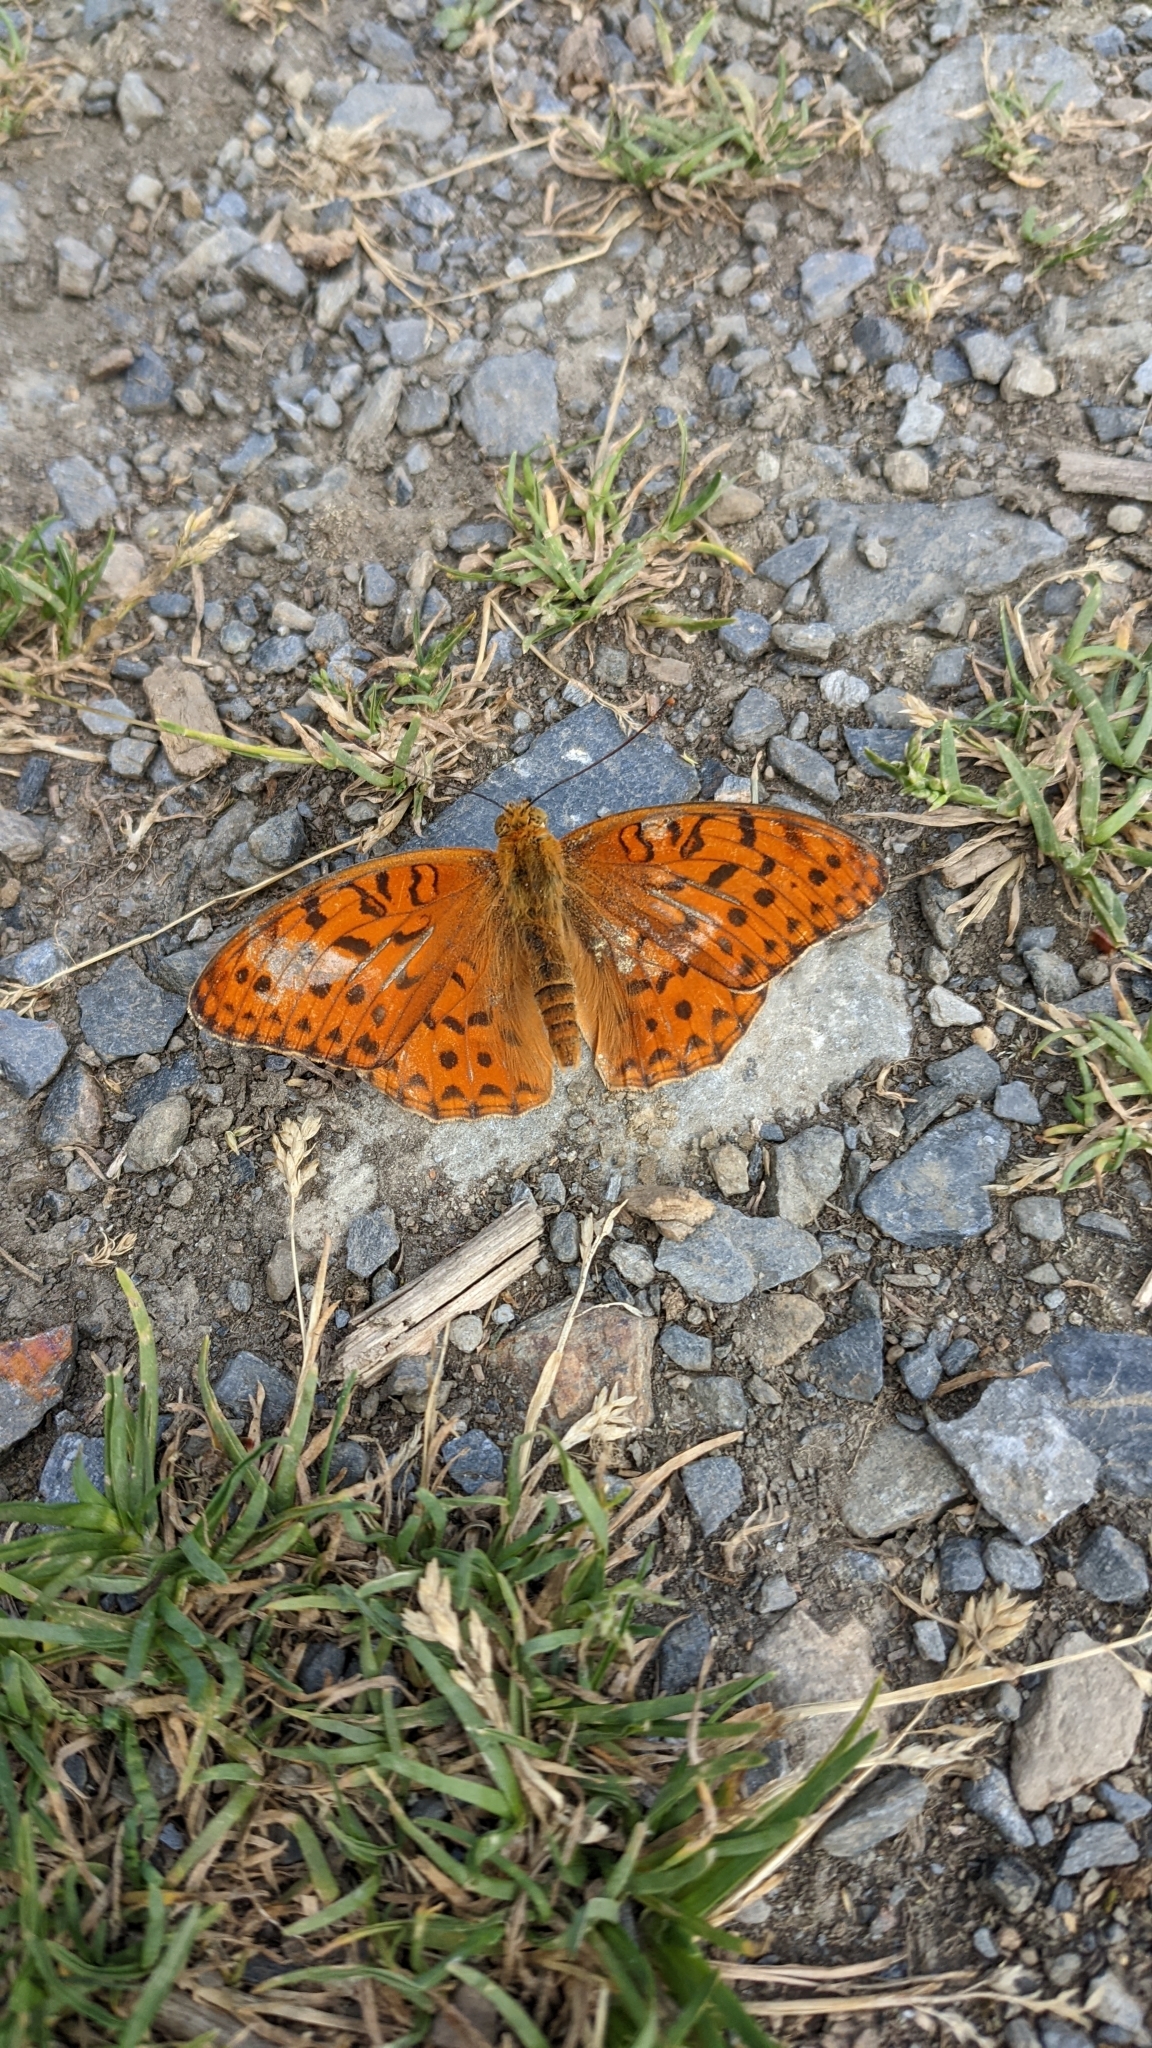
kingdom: Animalia
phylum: Arthropoda
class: Insecta
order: Lepidoptera
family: Nymphalidae
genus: Fabriciana
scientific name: Fabriciana adippe
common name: High brown fritillary
